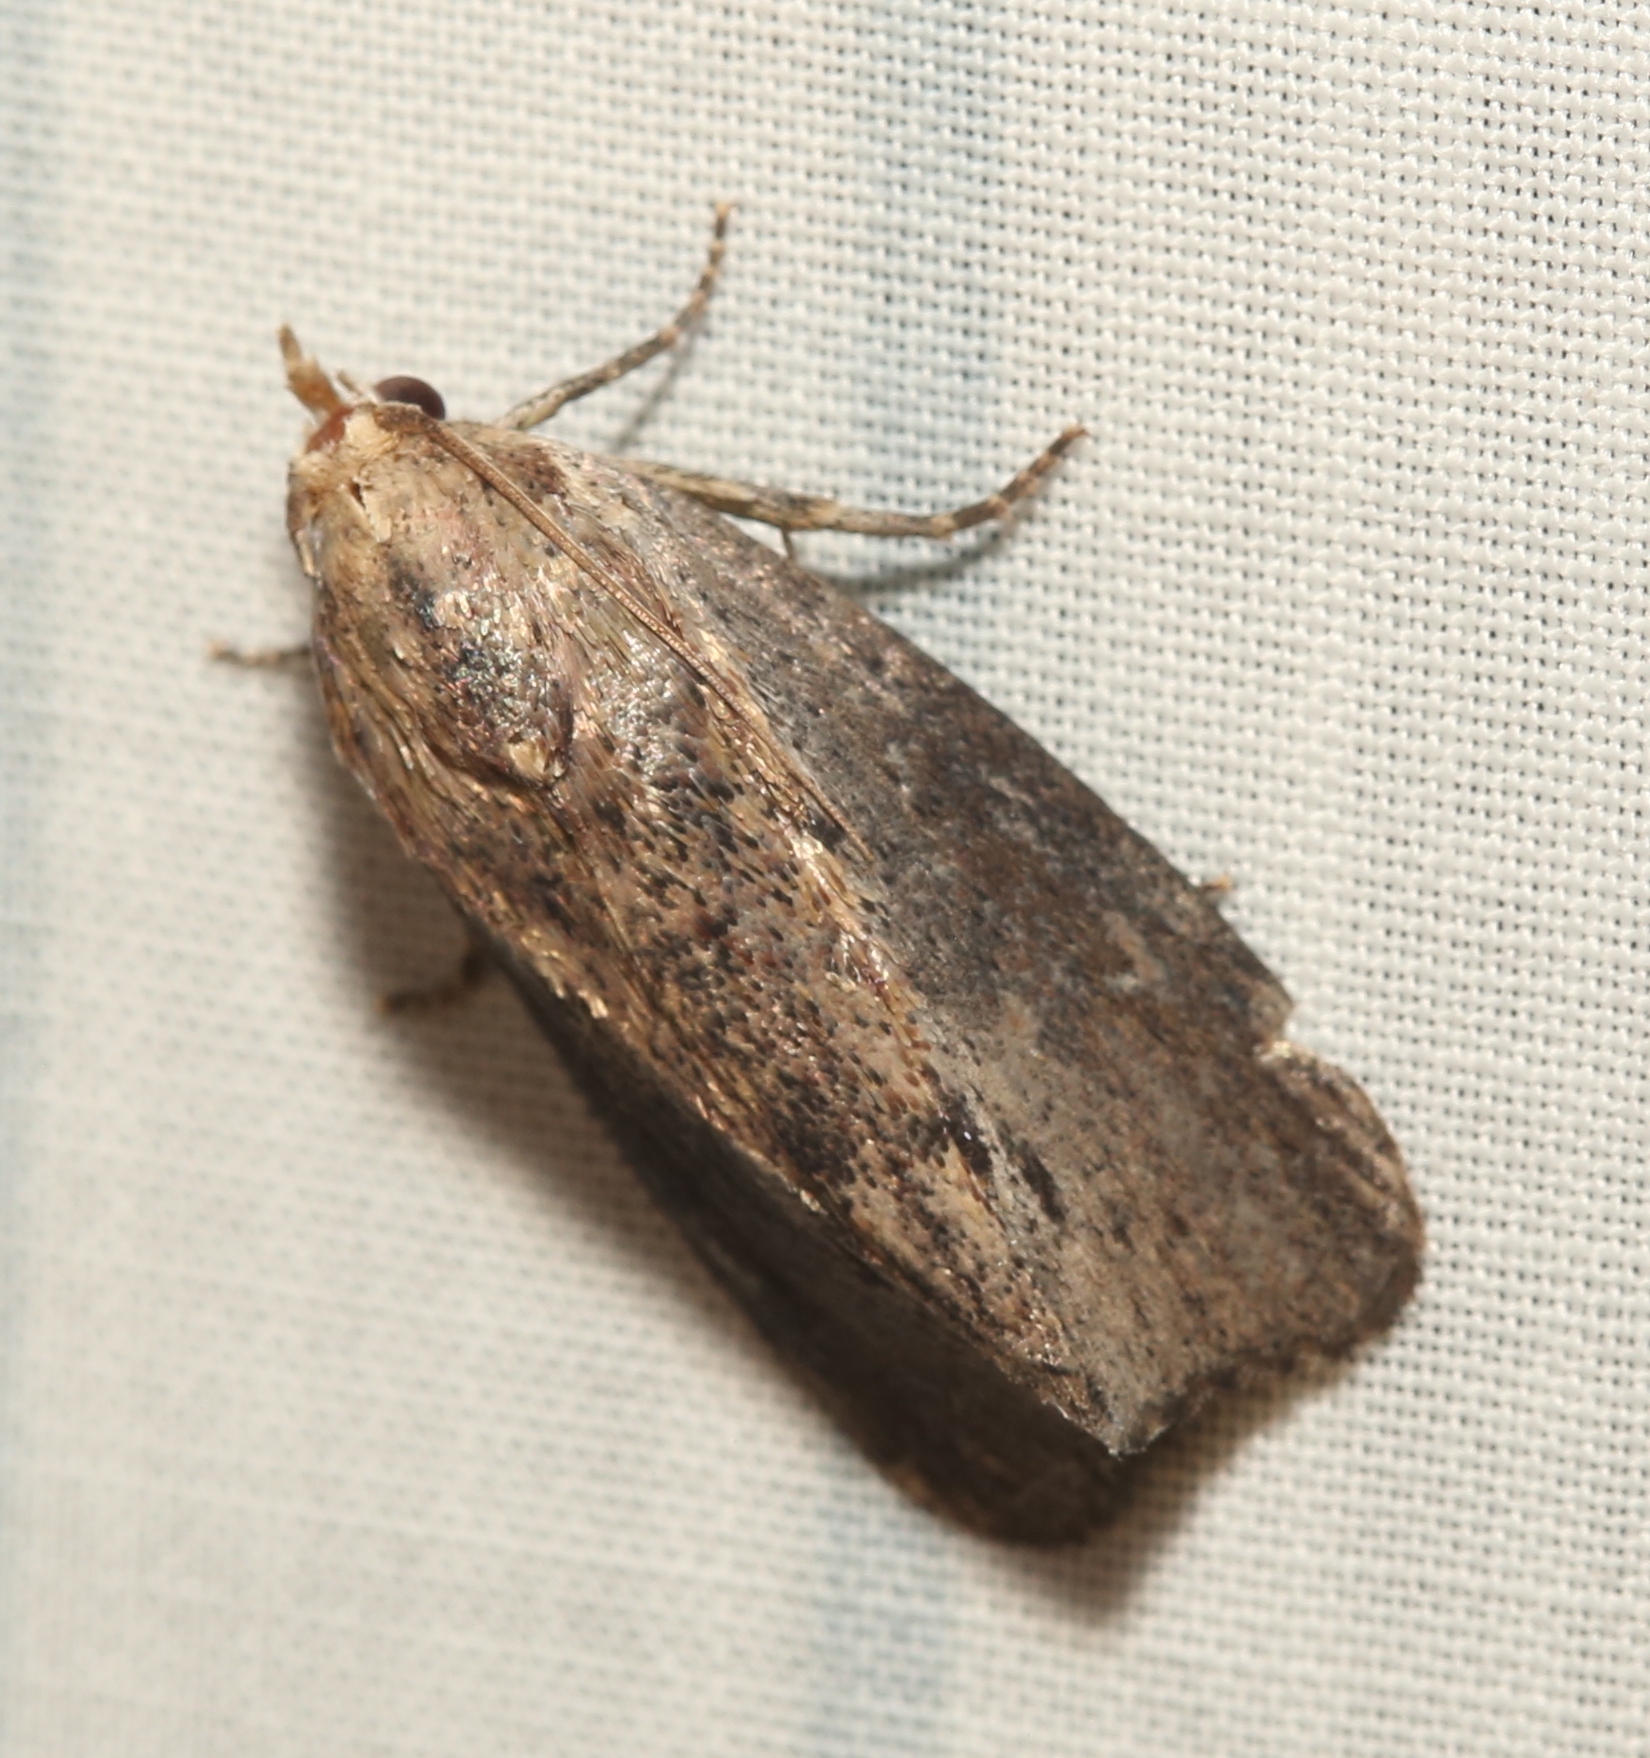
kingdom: Animalia
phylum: Arthropoda
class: Insecta
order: Lepidoptera
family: Pyralidae
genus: Galleria
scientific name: Galleria mellonella
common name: Greater wax moth
